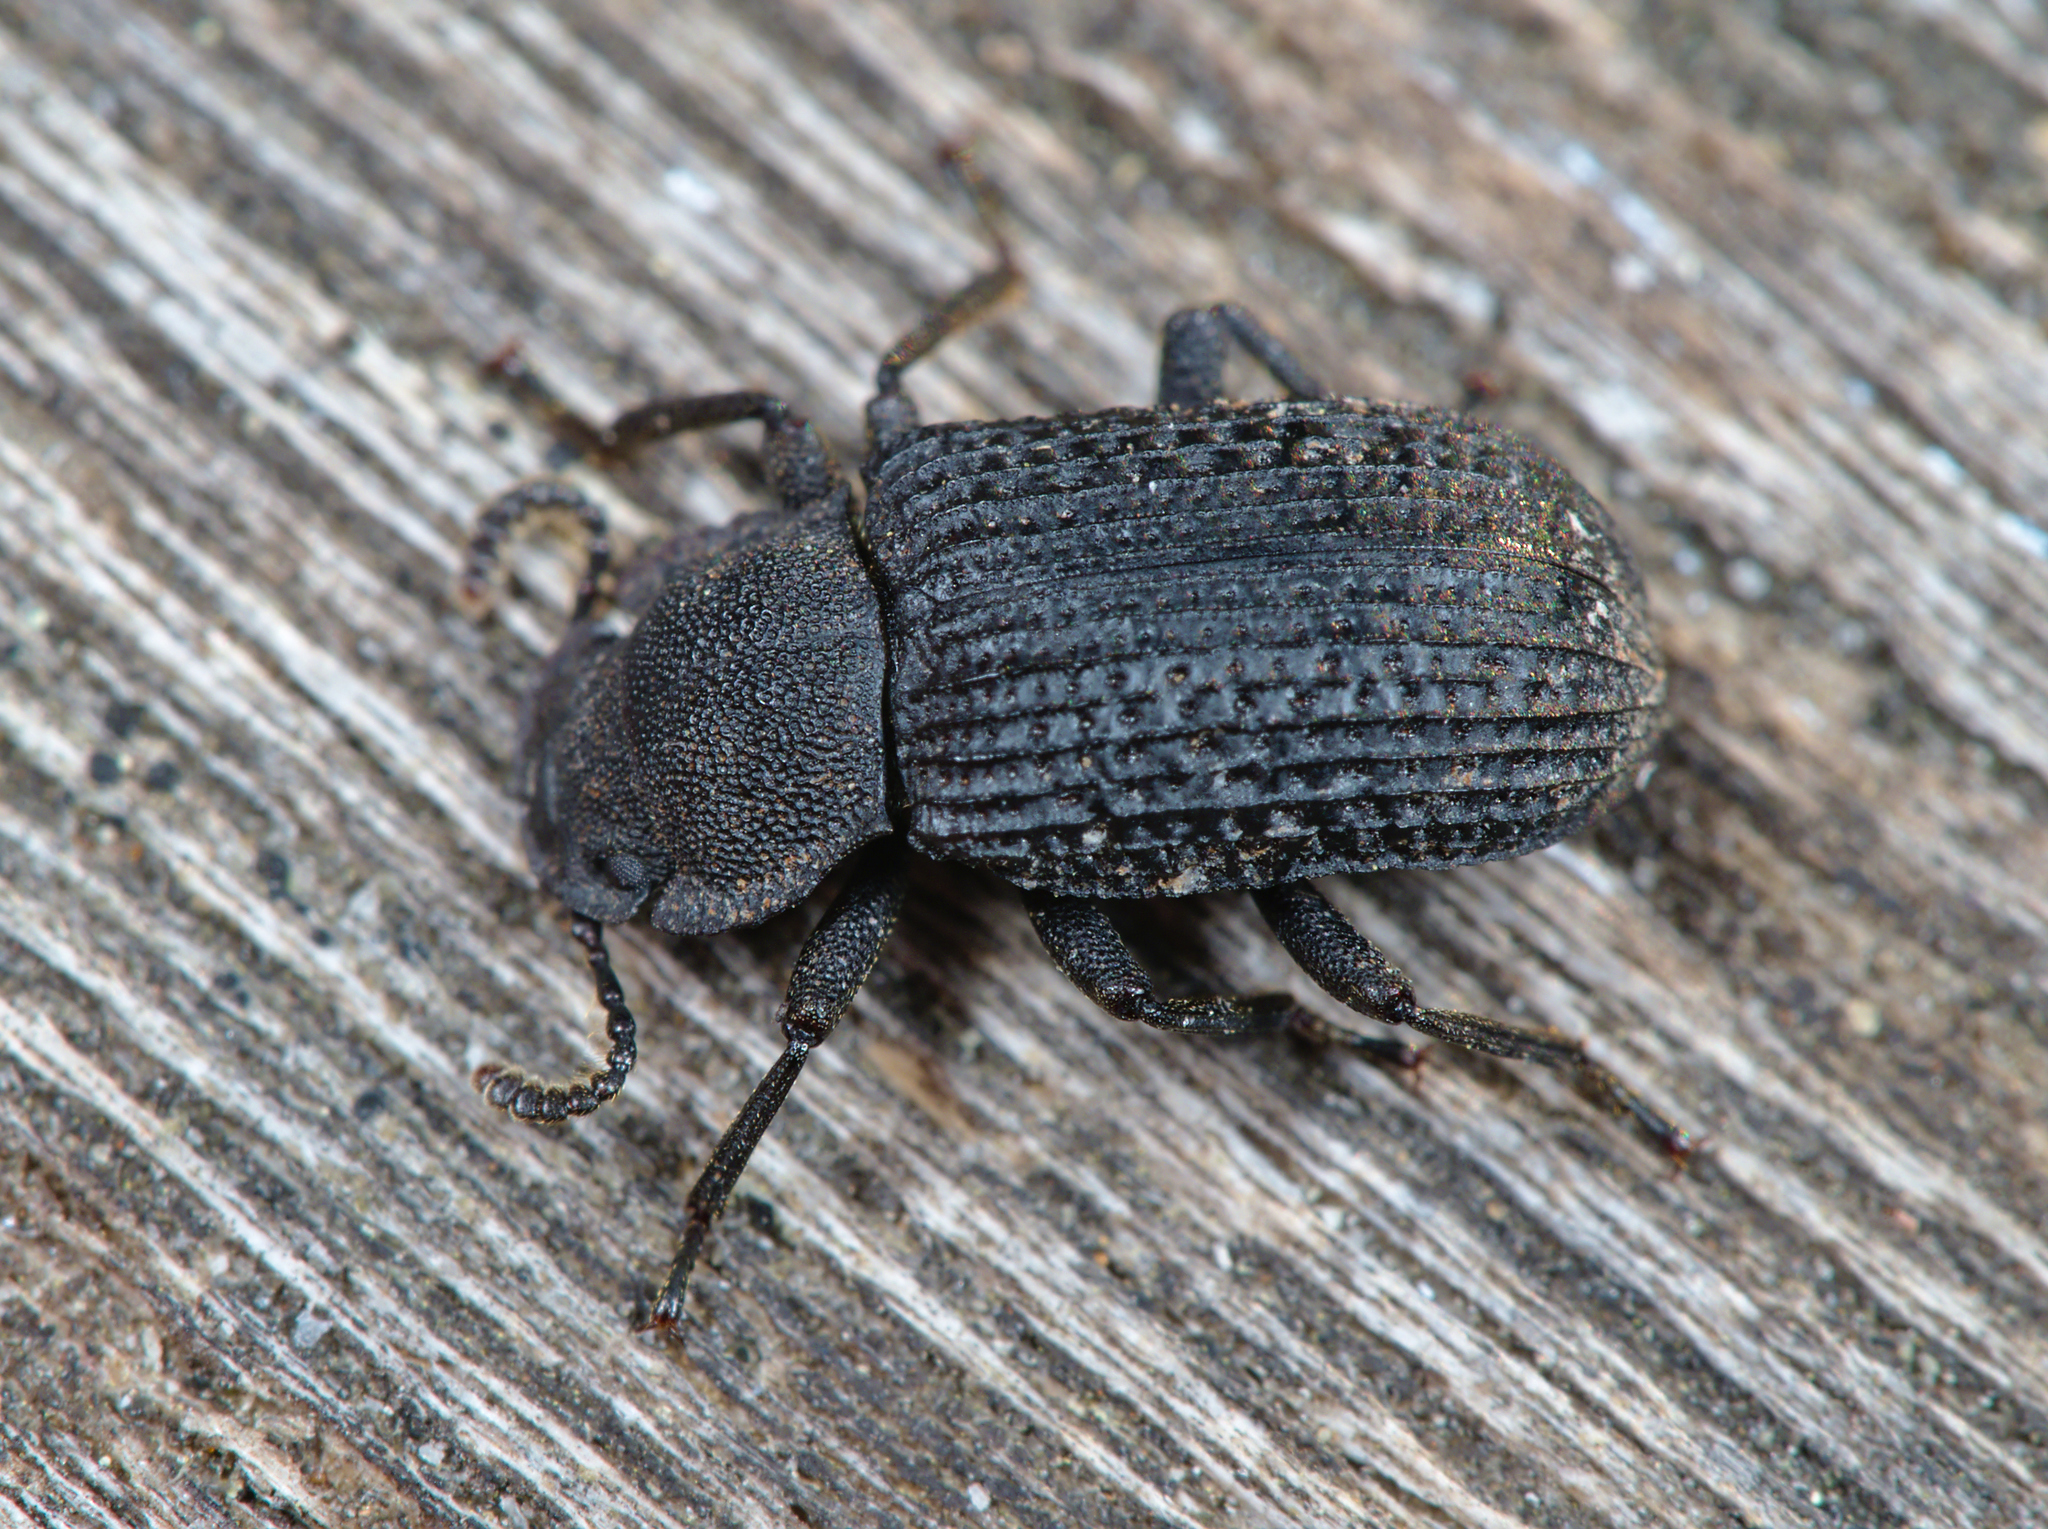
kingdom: Animalia
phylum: Arthropoda
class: Insecta
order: Coleoptera
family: Tenebrionidae
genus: Bolitophagus
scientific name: Bolitophagus reticulatus
